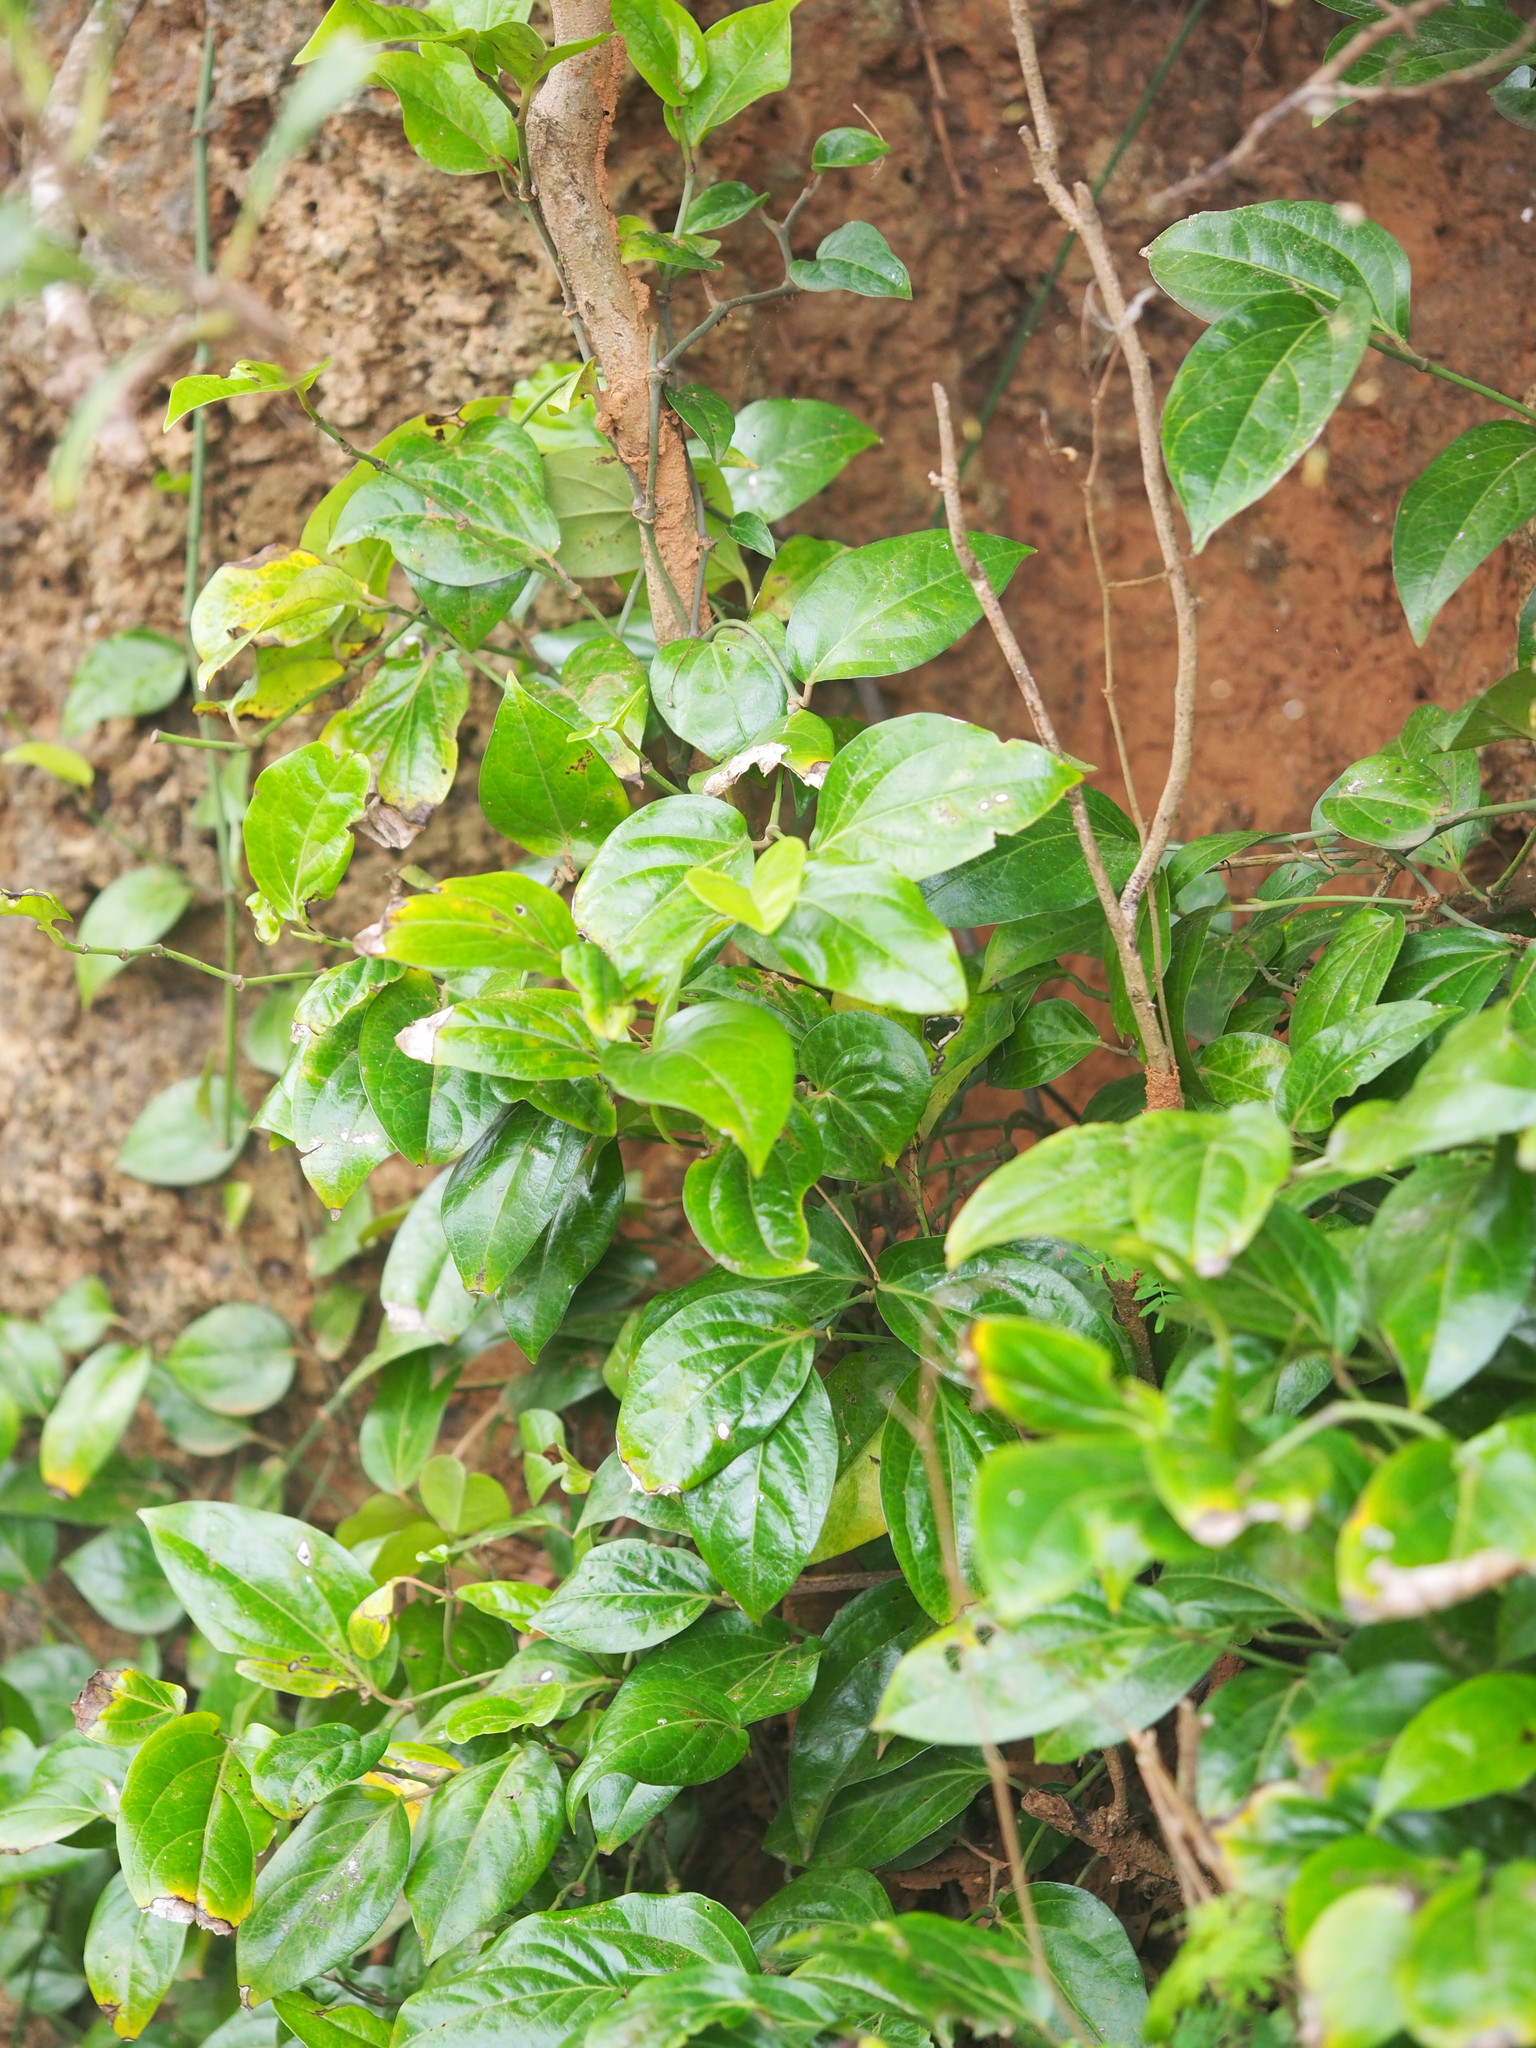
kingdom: Plantae
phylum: Tracheophyta
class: Magnoliopsida
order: Piperales
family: Piperaceae
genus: Piper
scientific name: Piper kawakamii
